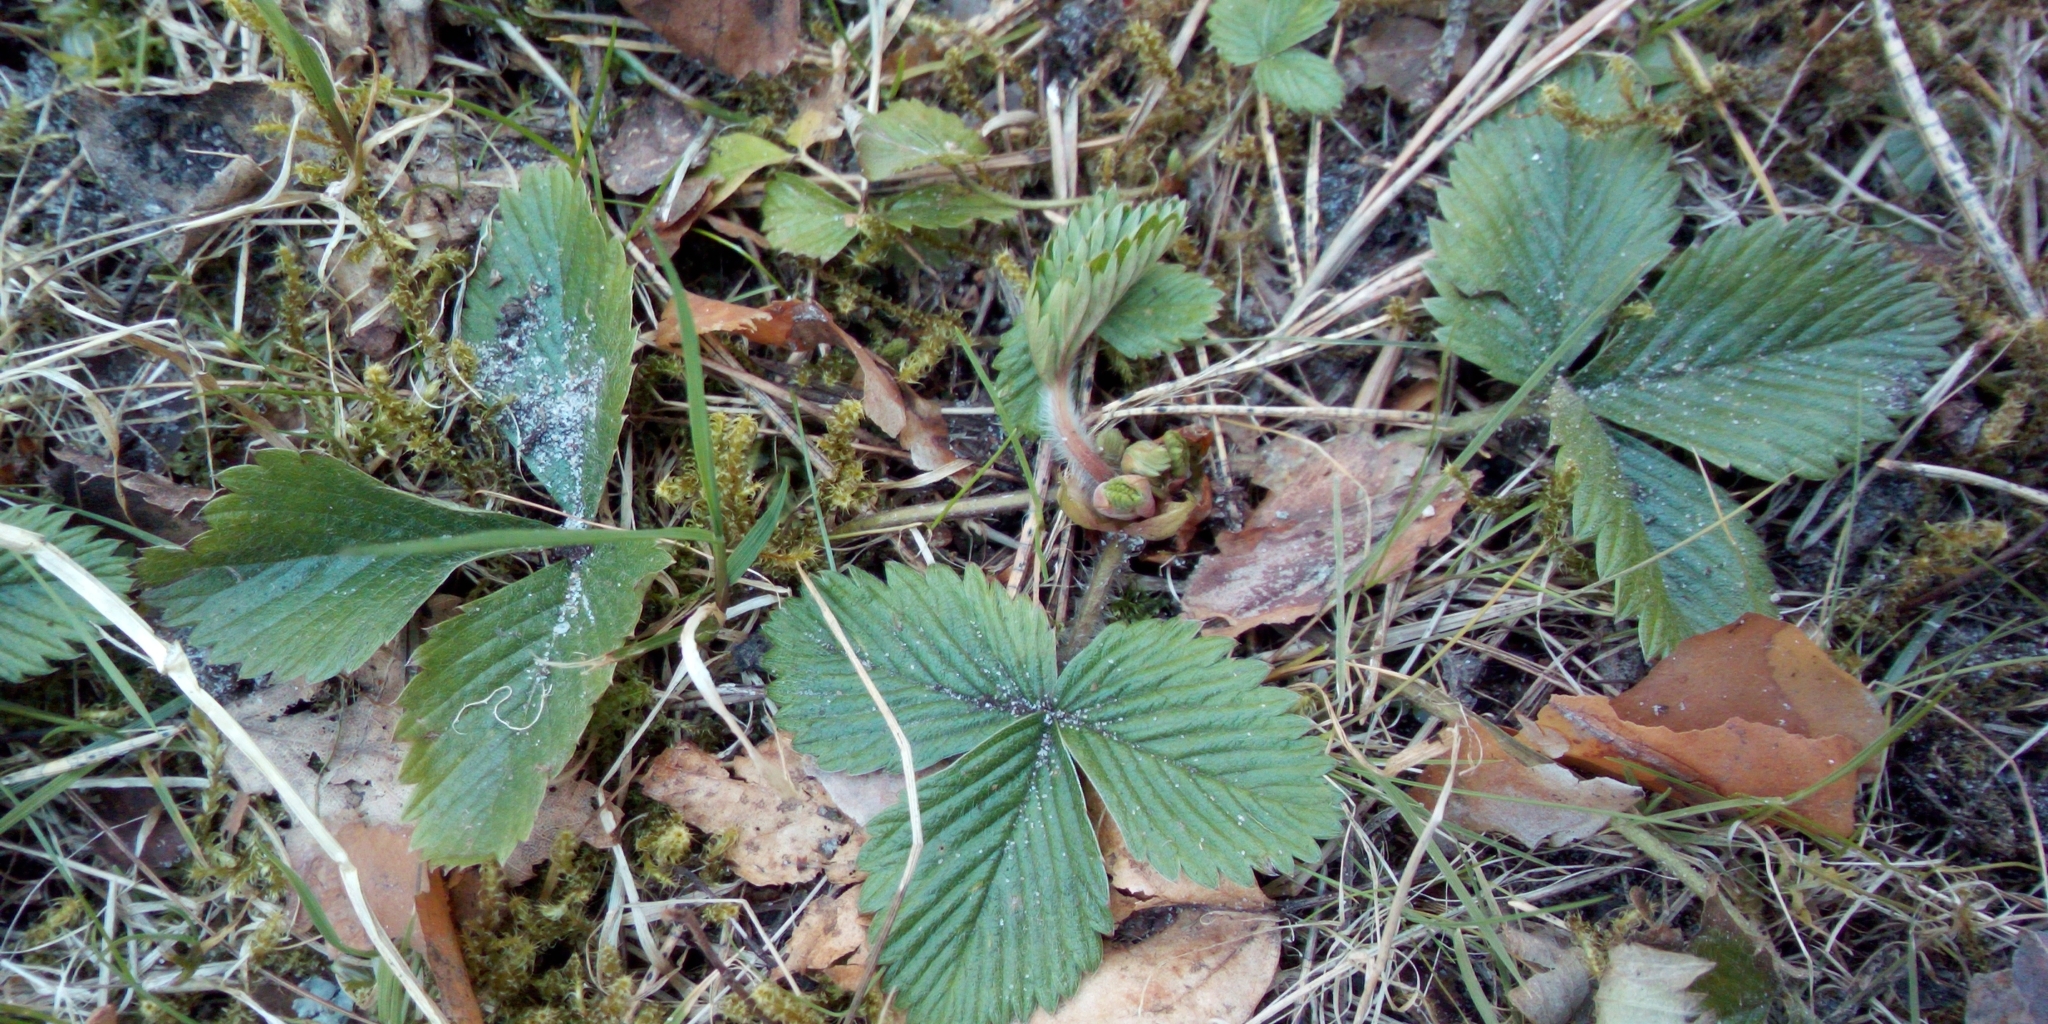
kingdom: Plantae
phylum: Tracheophyta
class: Magnoliopsida
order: Rosales
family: Rosaceae
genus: Fragaria
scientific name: Fragaria vesca
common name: Wild strawberry
